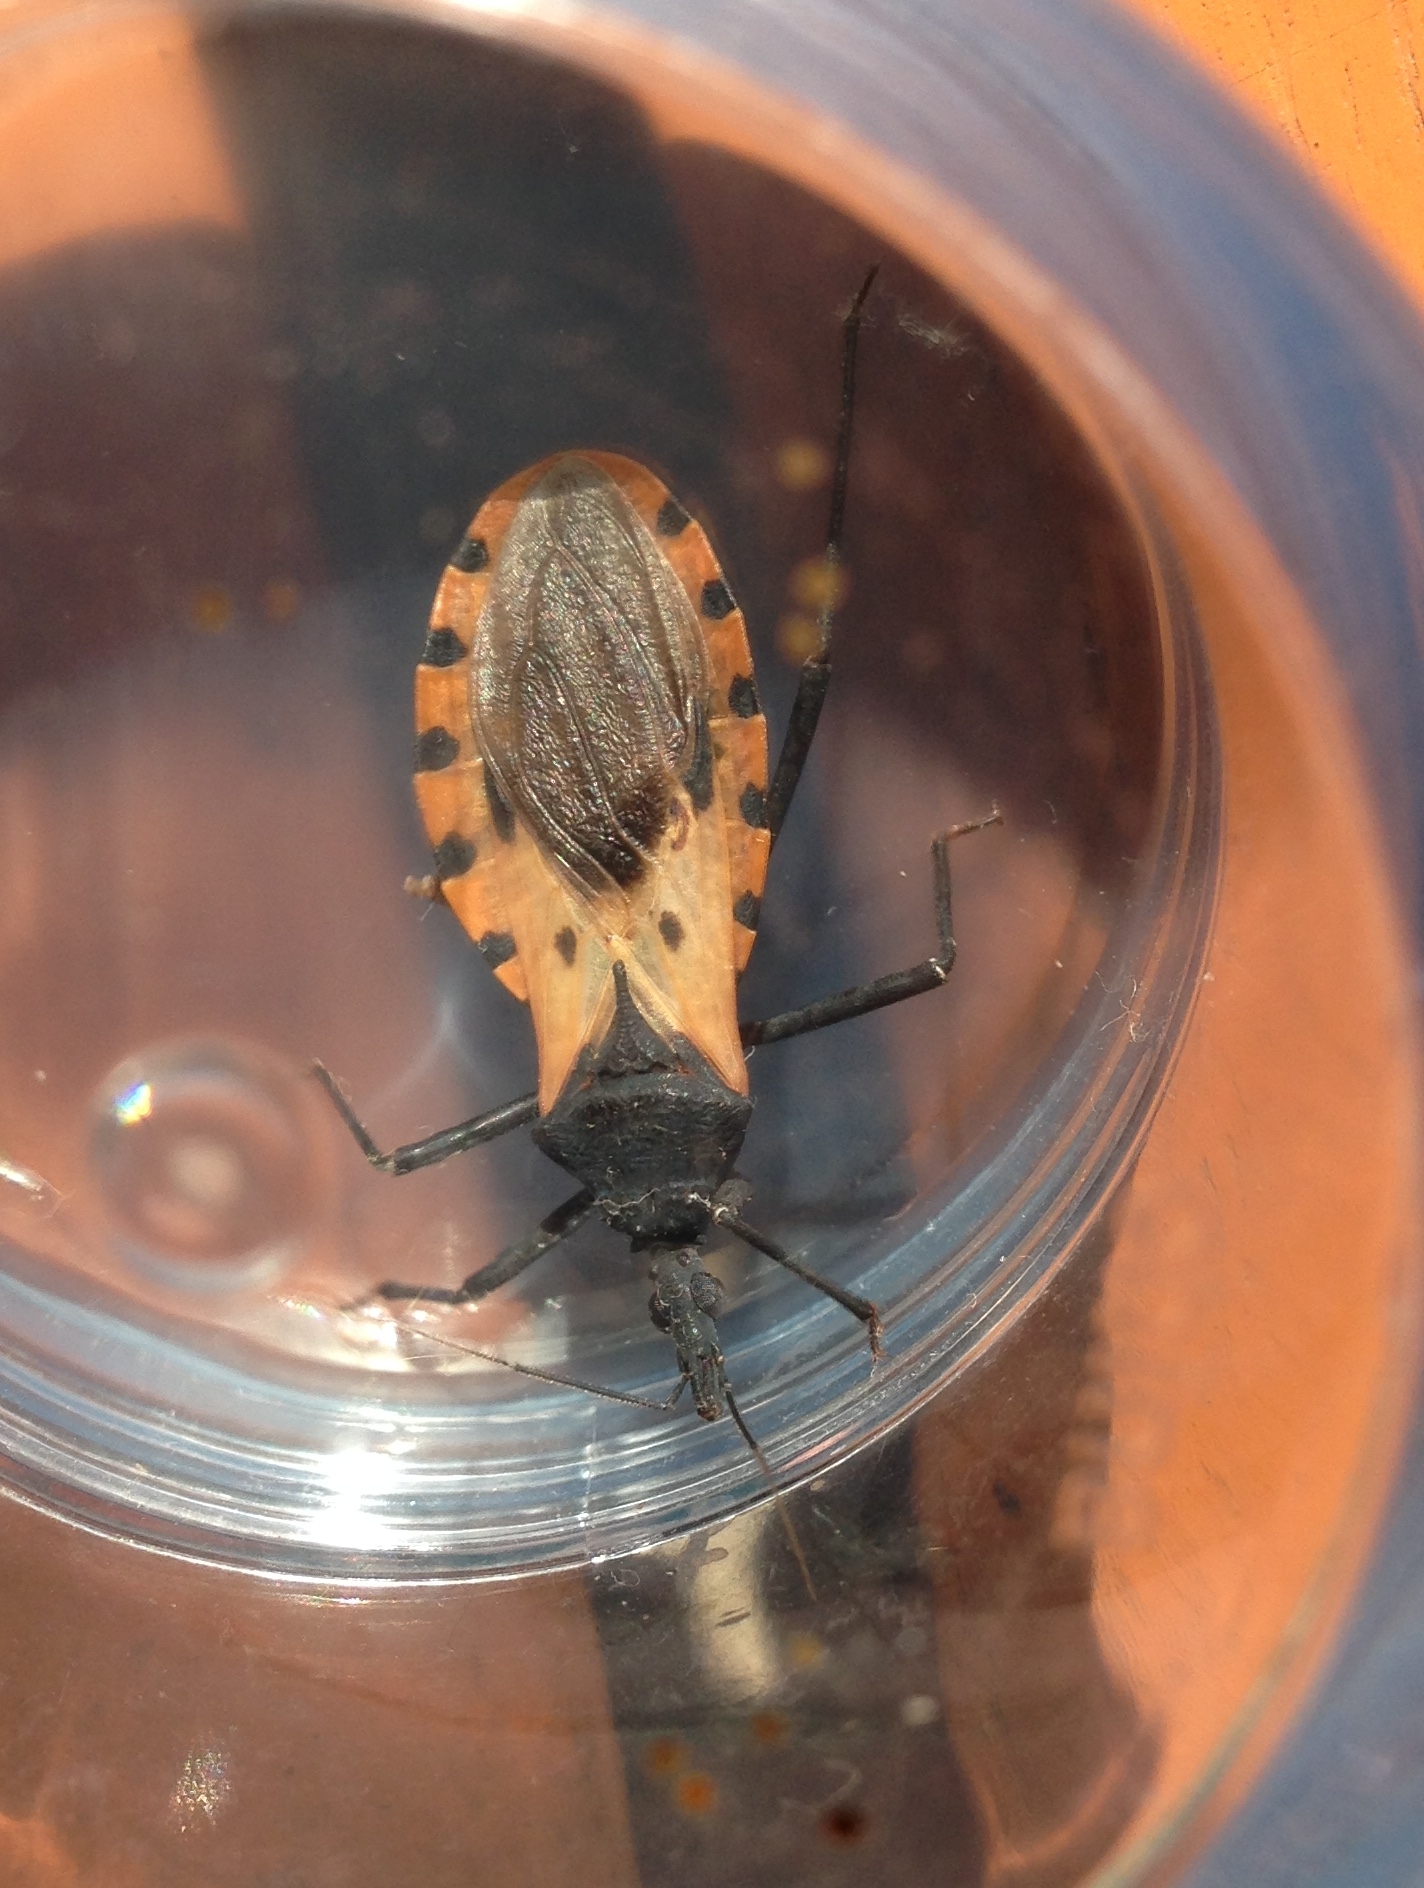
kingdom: Animalia
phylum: Arthropoda
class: Insecta
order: Hemiptera
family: Reduviidae
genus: Meccus
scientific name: Meccus dimidiatus
